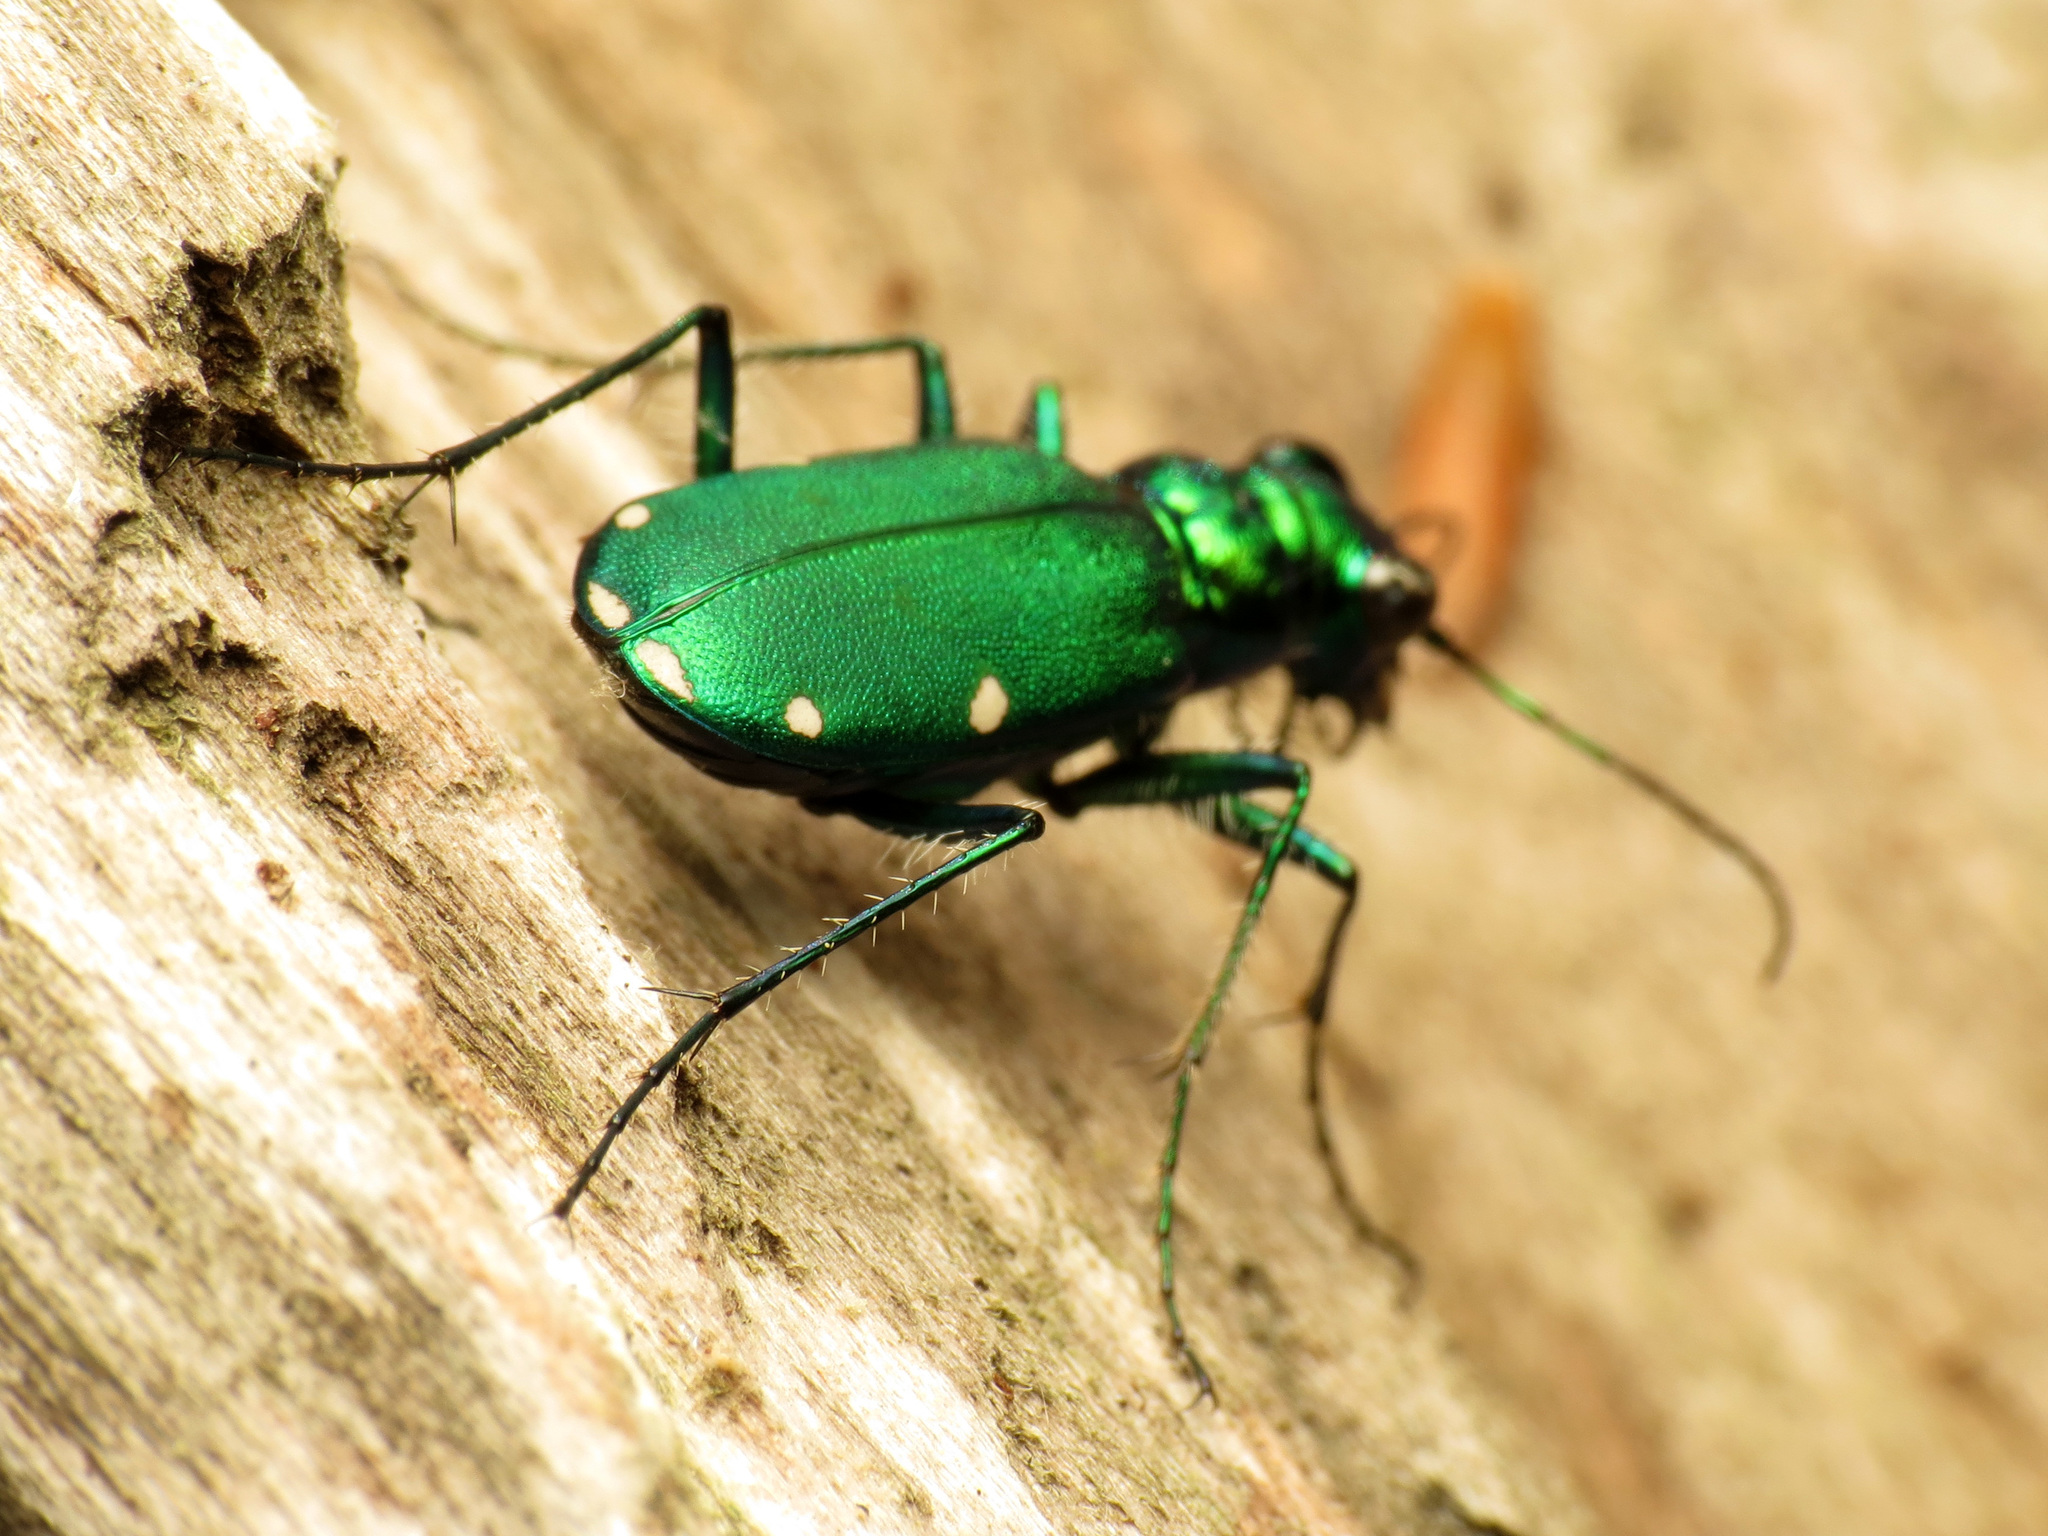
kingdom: Animalia
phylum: Arthropoda
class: Insecta
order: Coleoptera
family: Carabidae
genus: Cicindela
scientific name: Cicindela sexguttata
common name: Six-spotted tiger beetle
